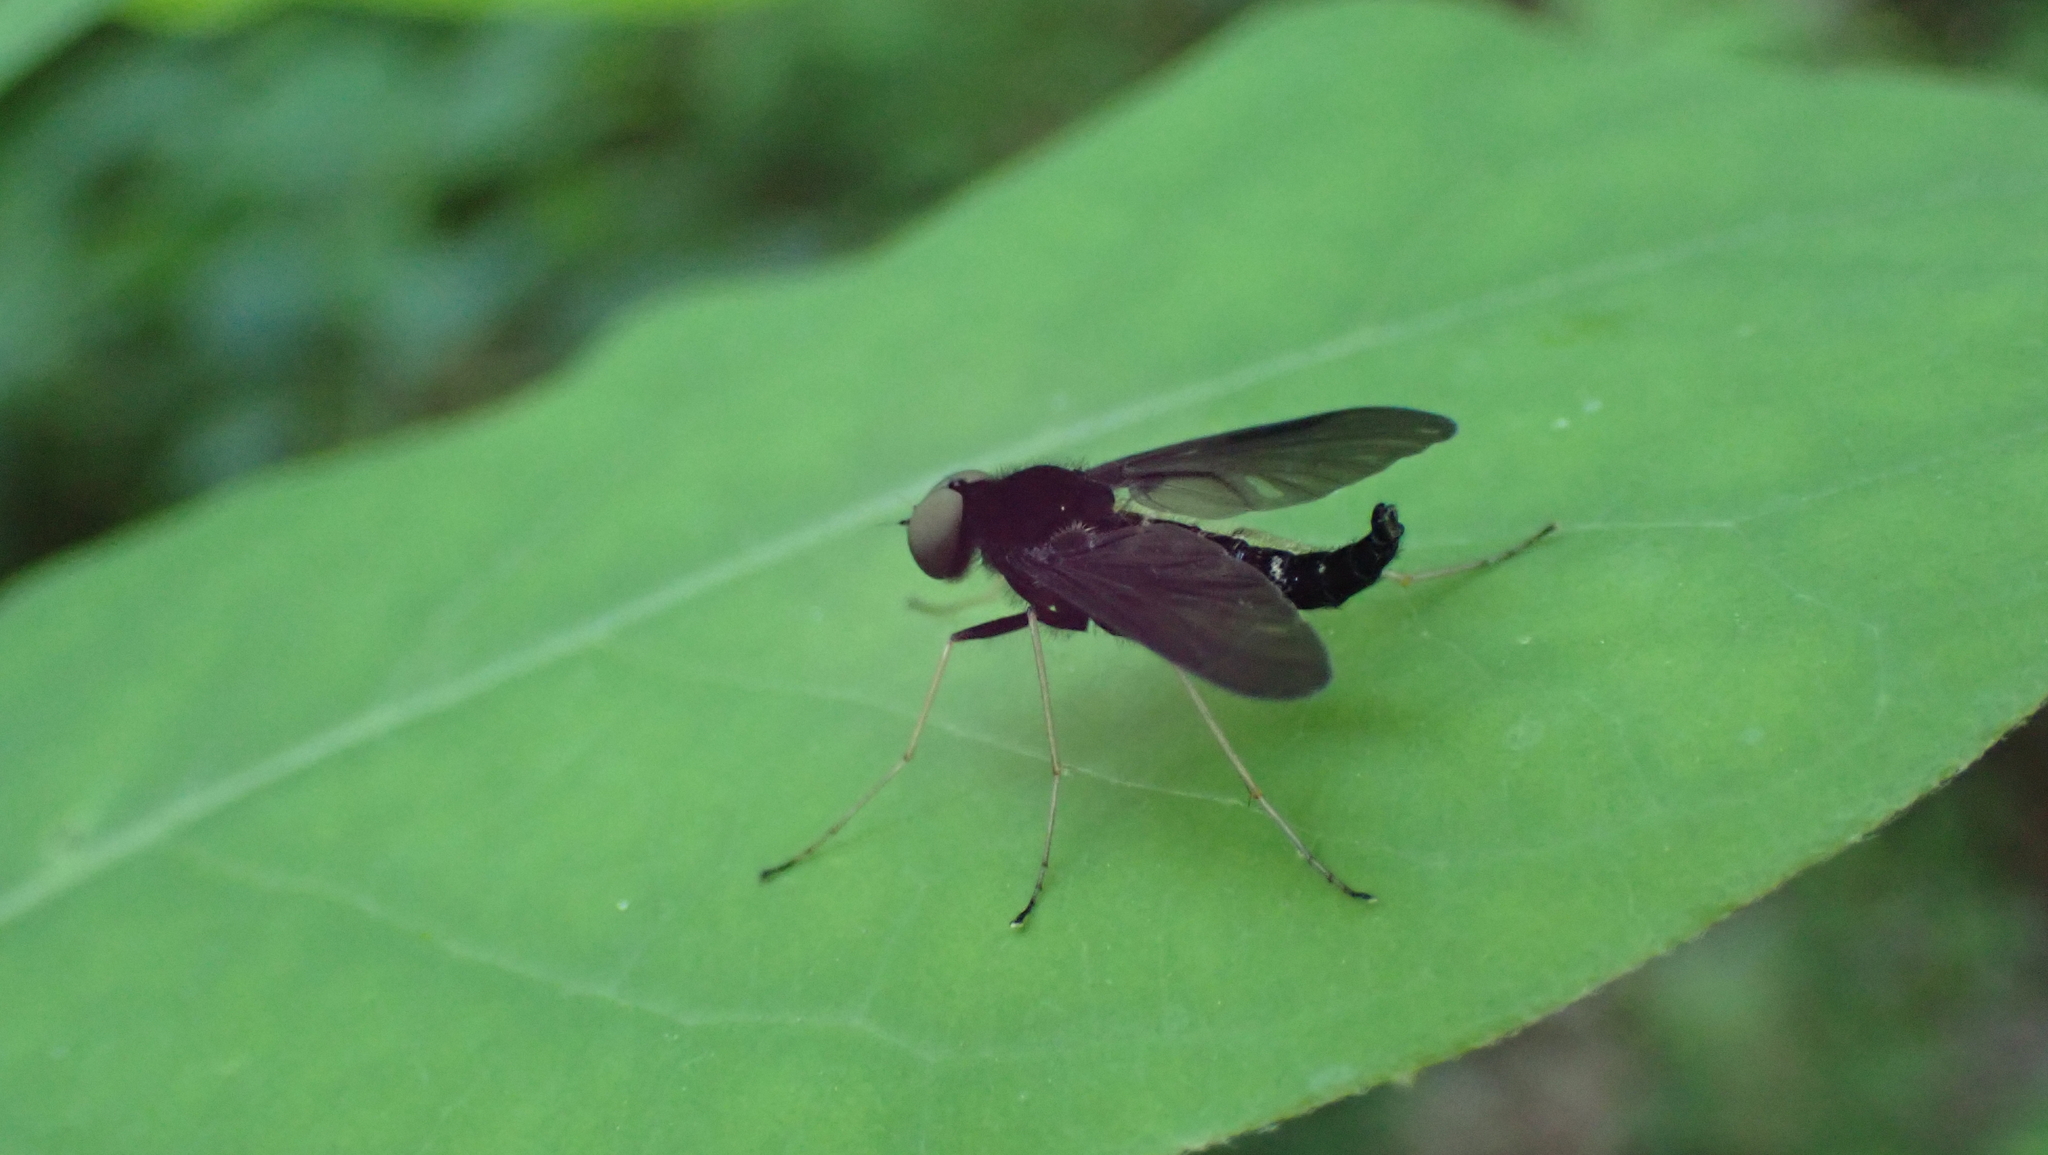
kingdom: Animalia
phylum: Arthropoda
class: Insecta
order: Diptera
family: Rhagionidae
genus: Chrysopilus
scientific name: Chrysopilus velutinus
